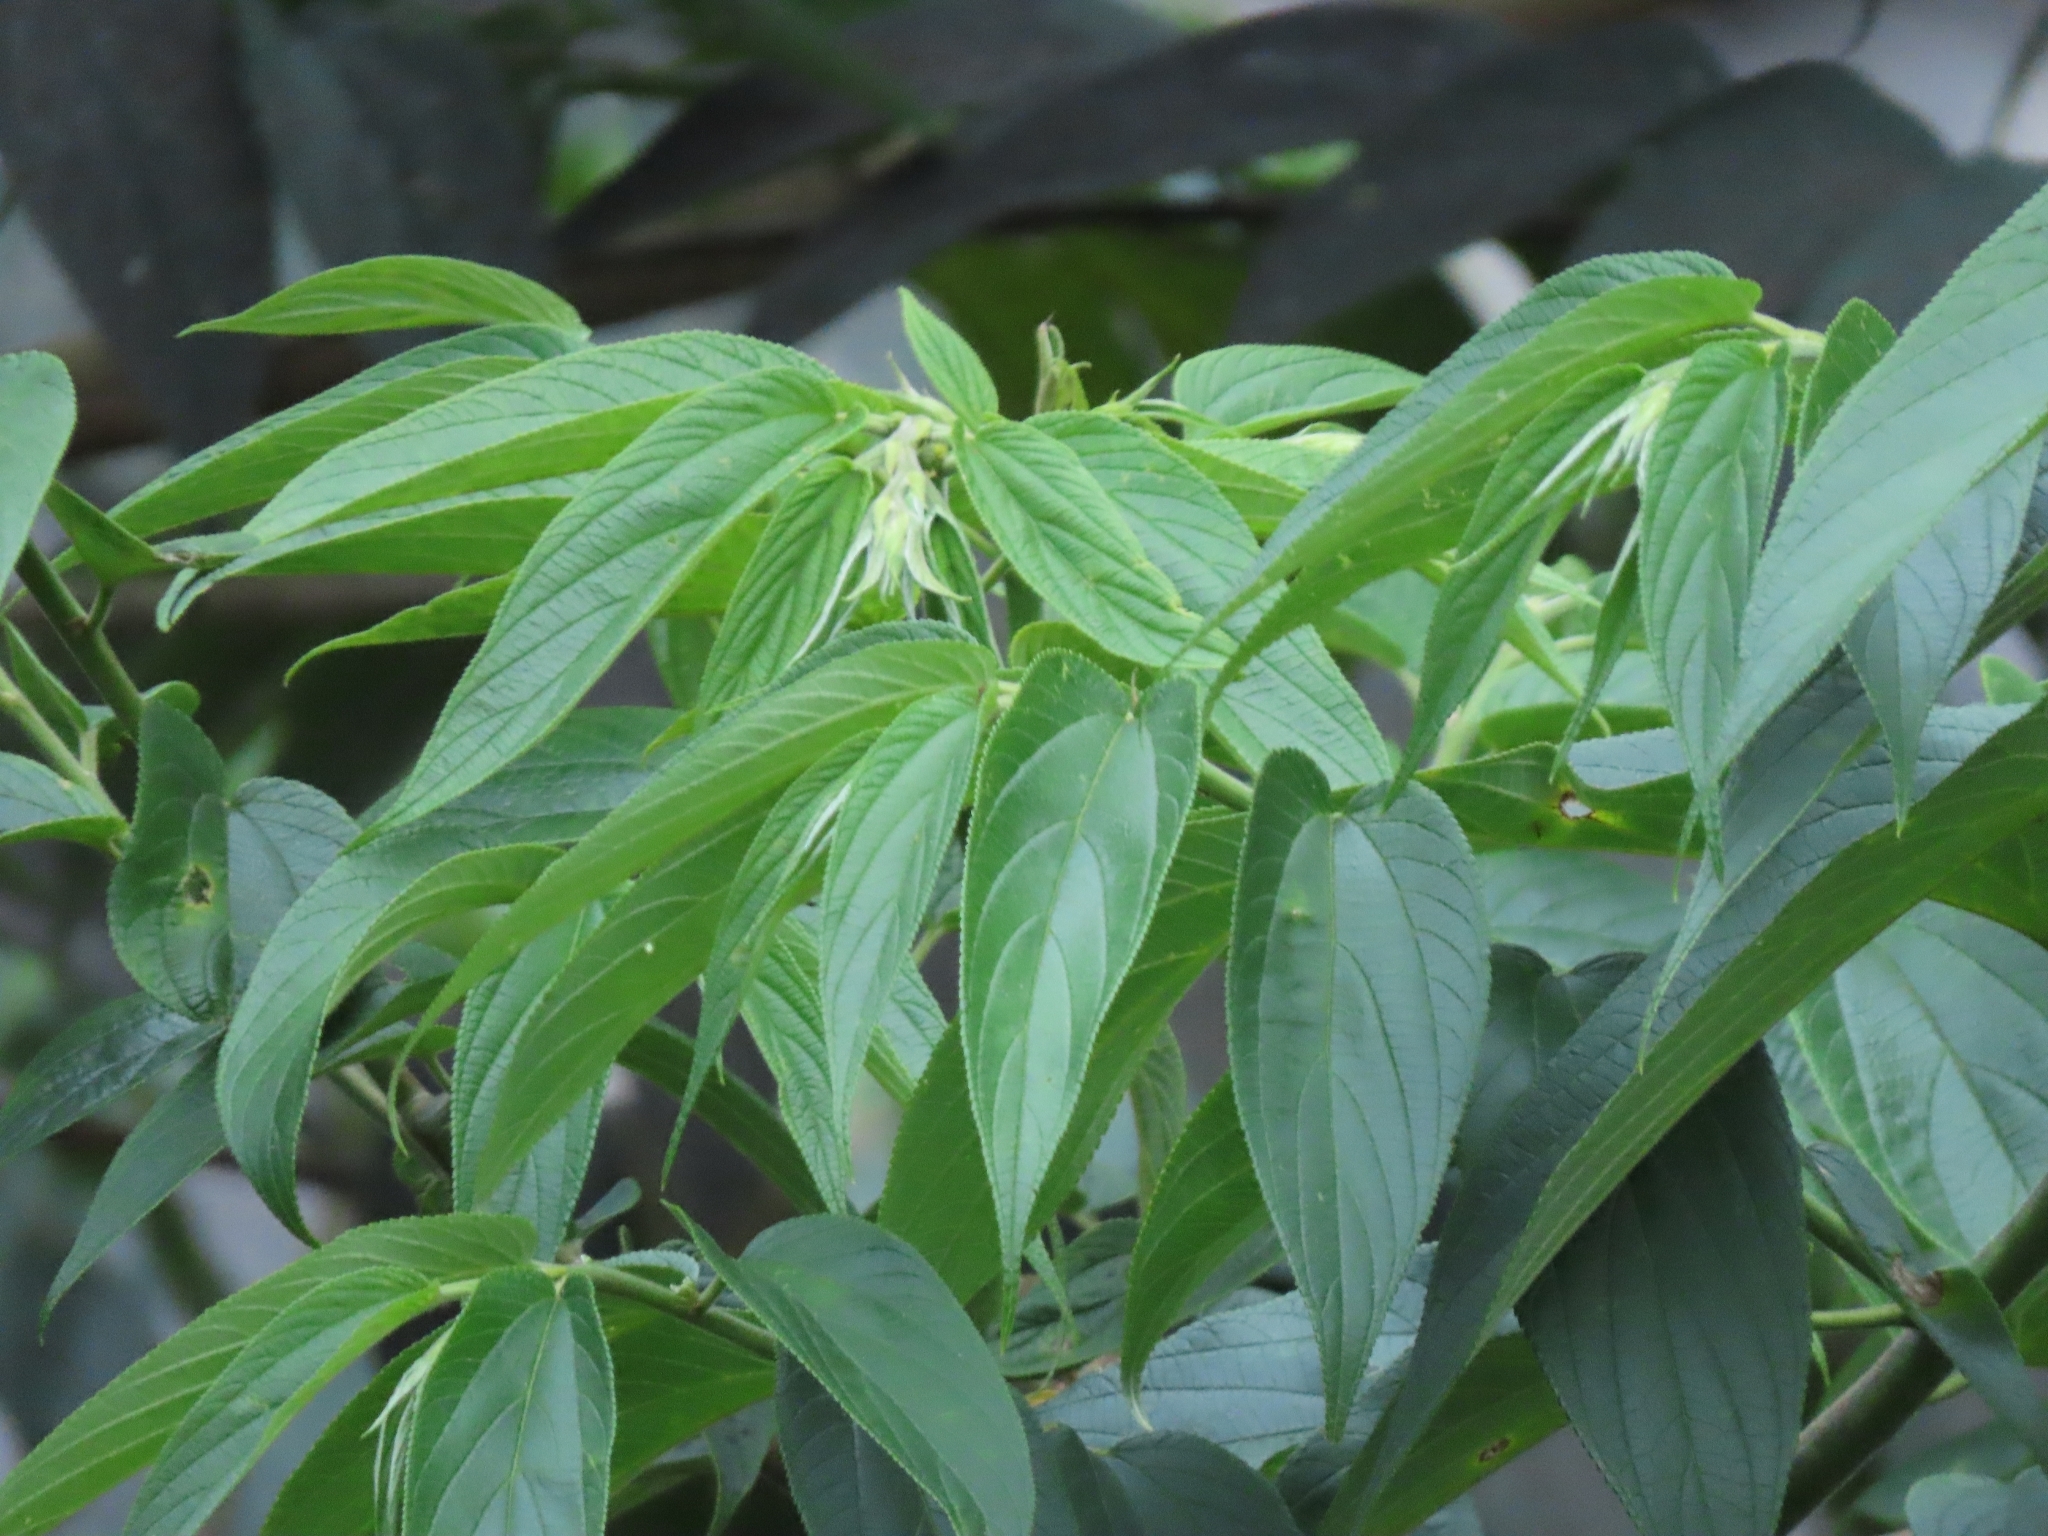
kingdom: Plantae
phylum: Tracheophyta
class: Magnoliopsida
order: Rosales
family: Cannabaceae
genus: Trema
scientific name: Trema orientale
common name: Indian charcoal tree
